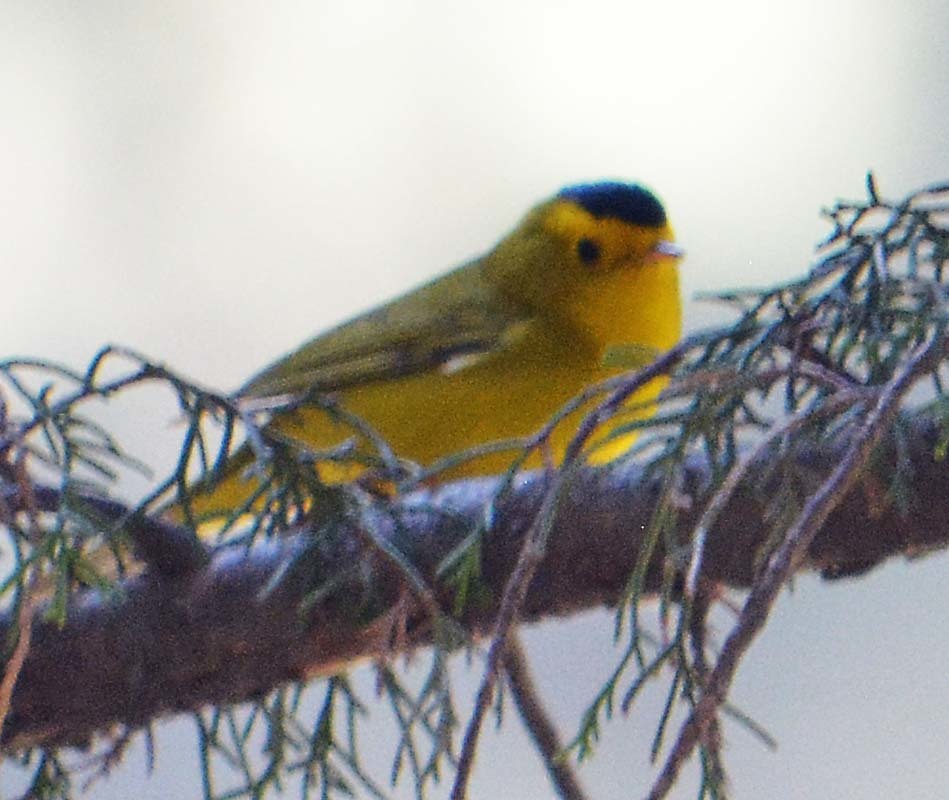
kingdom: Animalia
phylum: Chordata
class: Aves
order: Passeriformes
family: Parulidae
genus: Cardellina
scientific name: Cardellina pusilla
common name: Wilson's warbler
